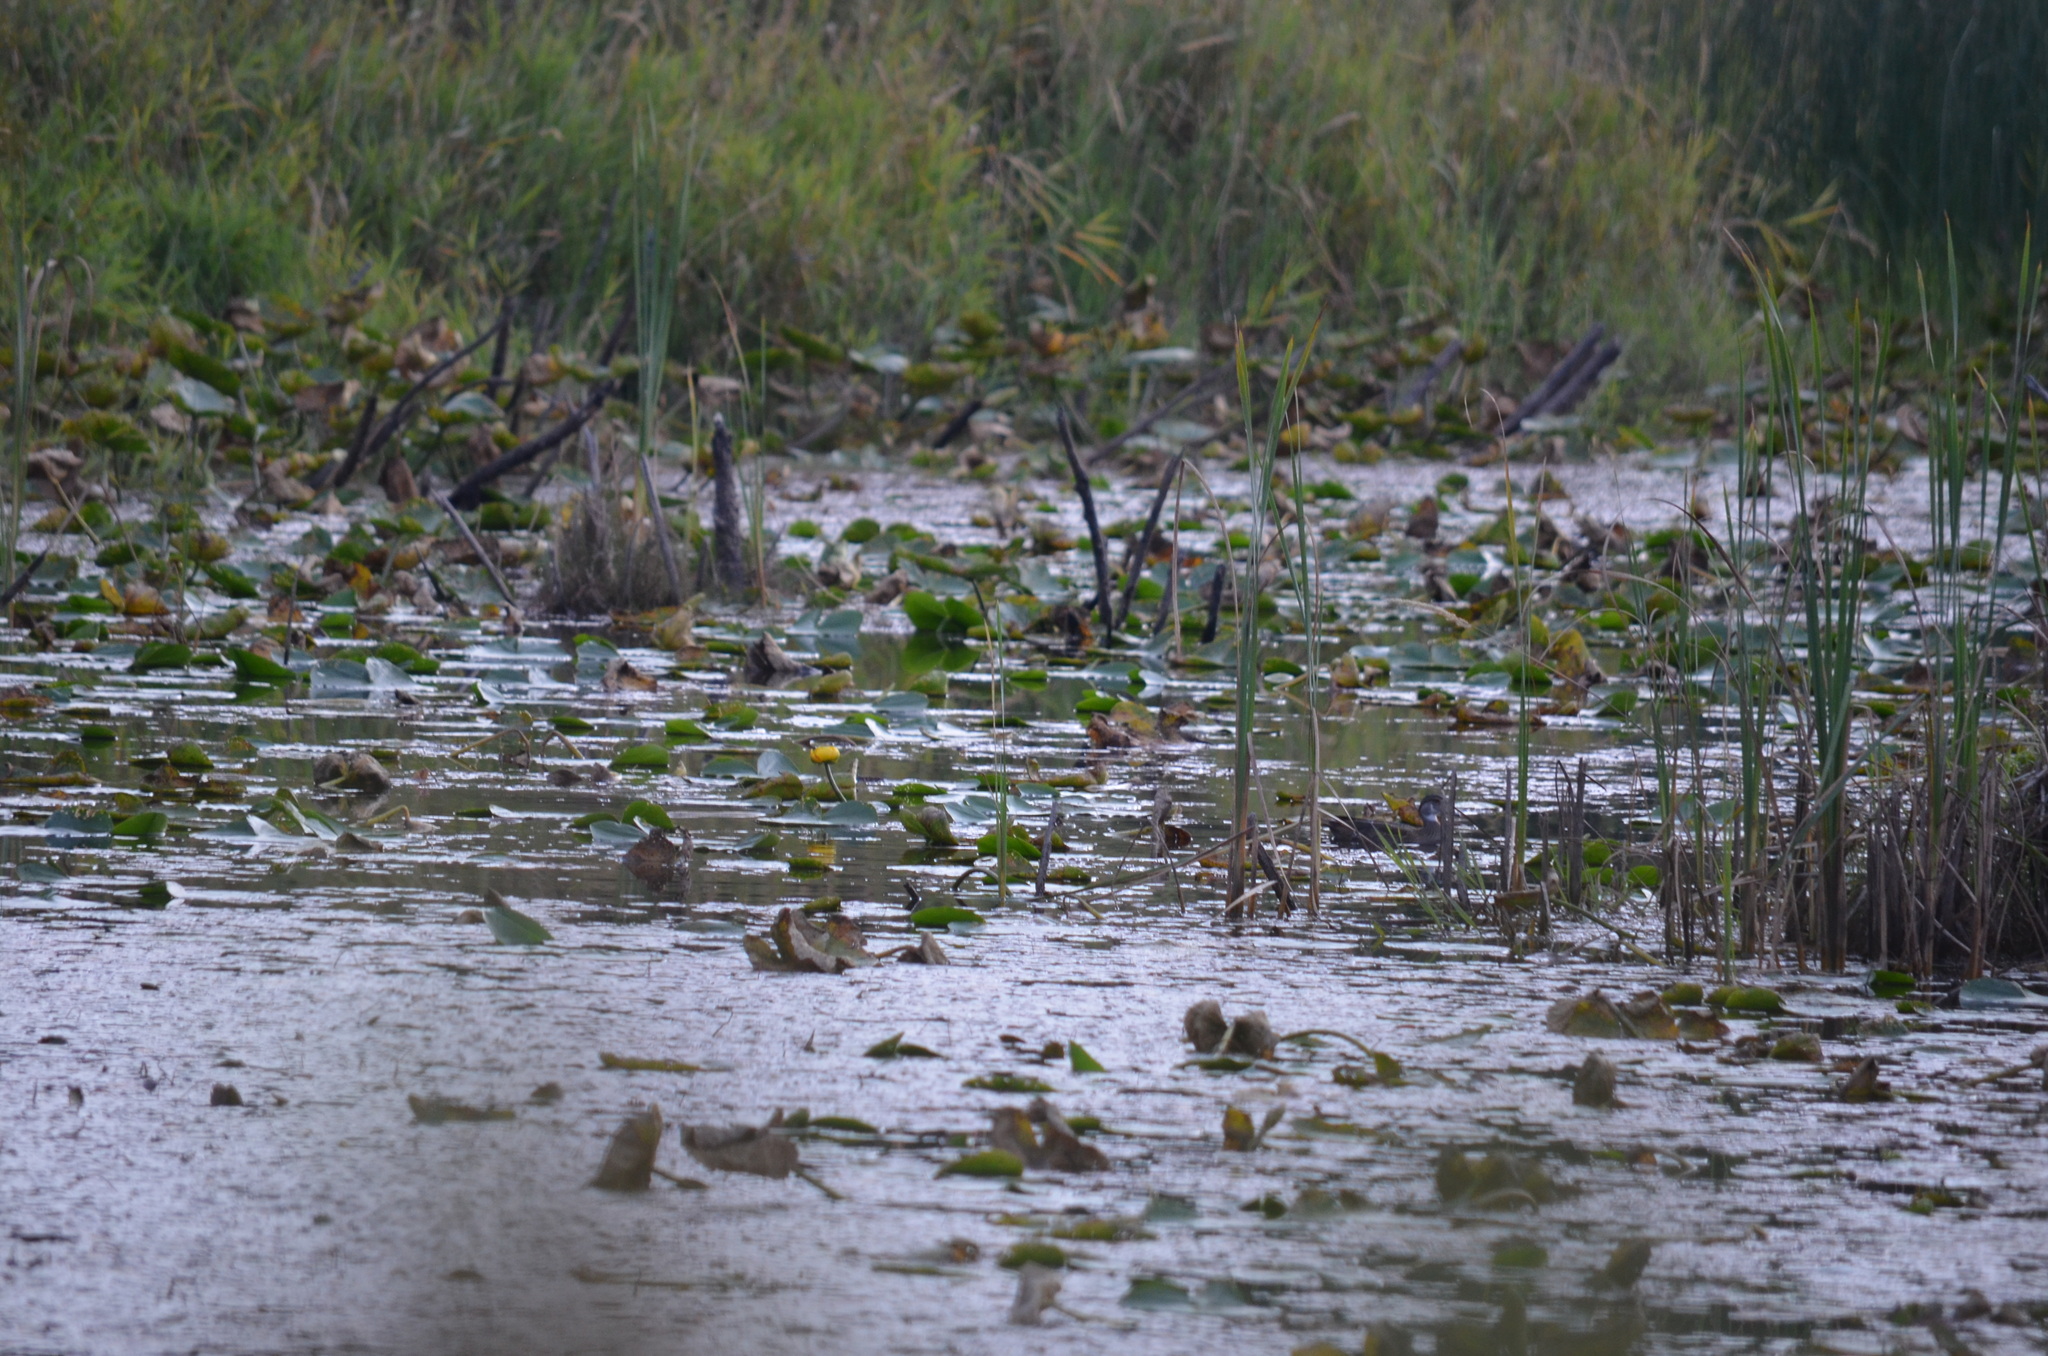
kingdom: Animalia
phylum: Chordata
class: Aves
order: Anseriformes
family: Anatidae
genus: Aix
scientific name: Aix sponsa
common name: Wood duck
